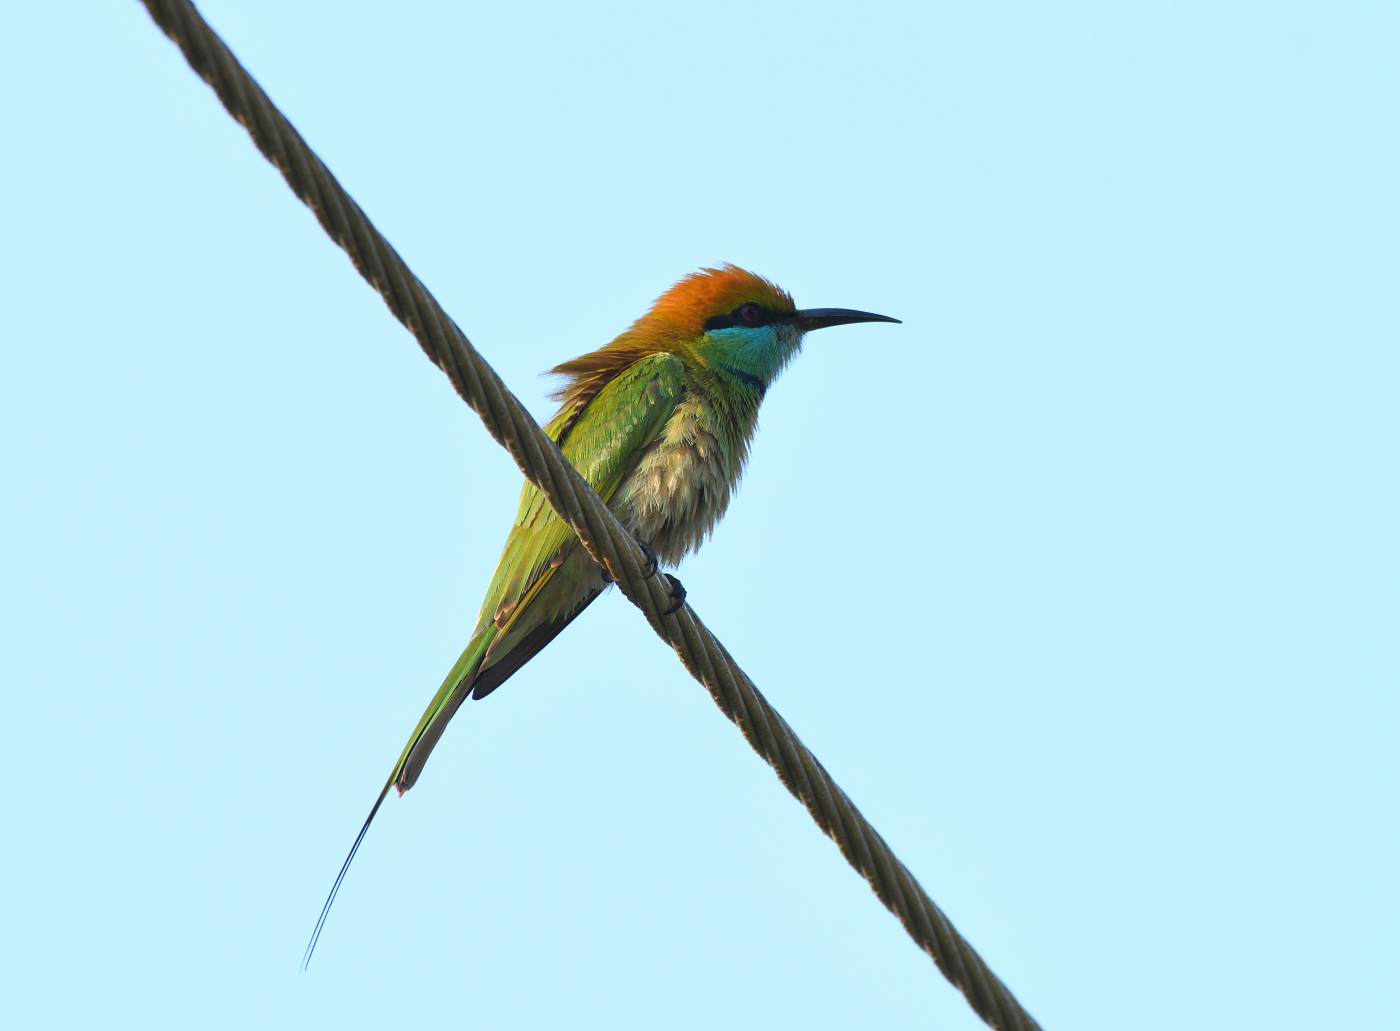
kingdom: Animalia
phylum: Chordata
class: Aves
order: Coraciiformes
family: Meropidae
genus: Merops
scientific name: Merops orientalis
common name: Green bee-eater
